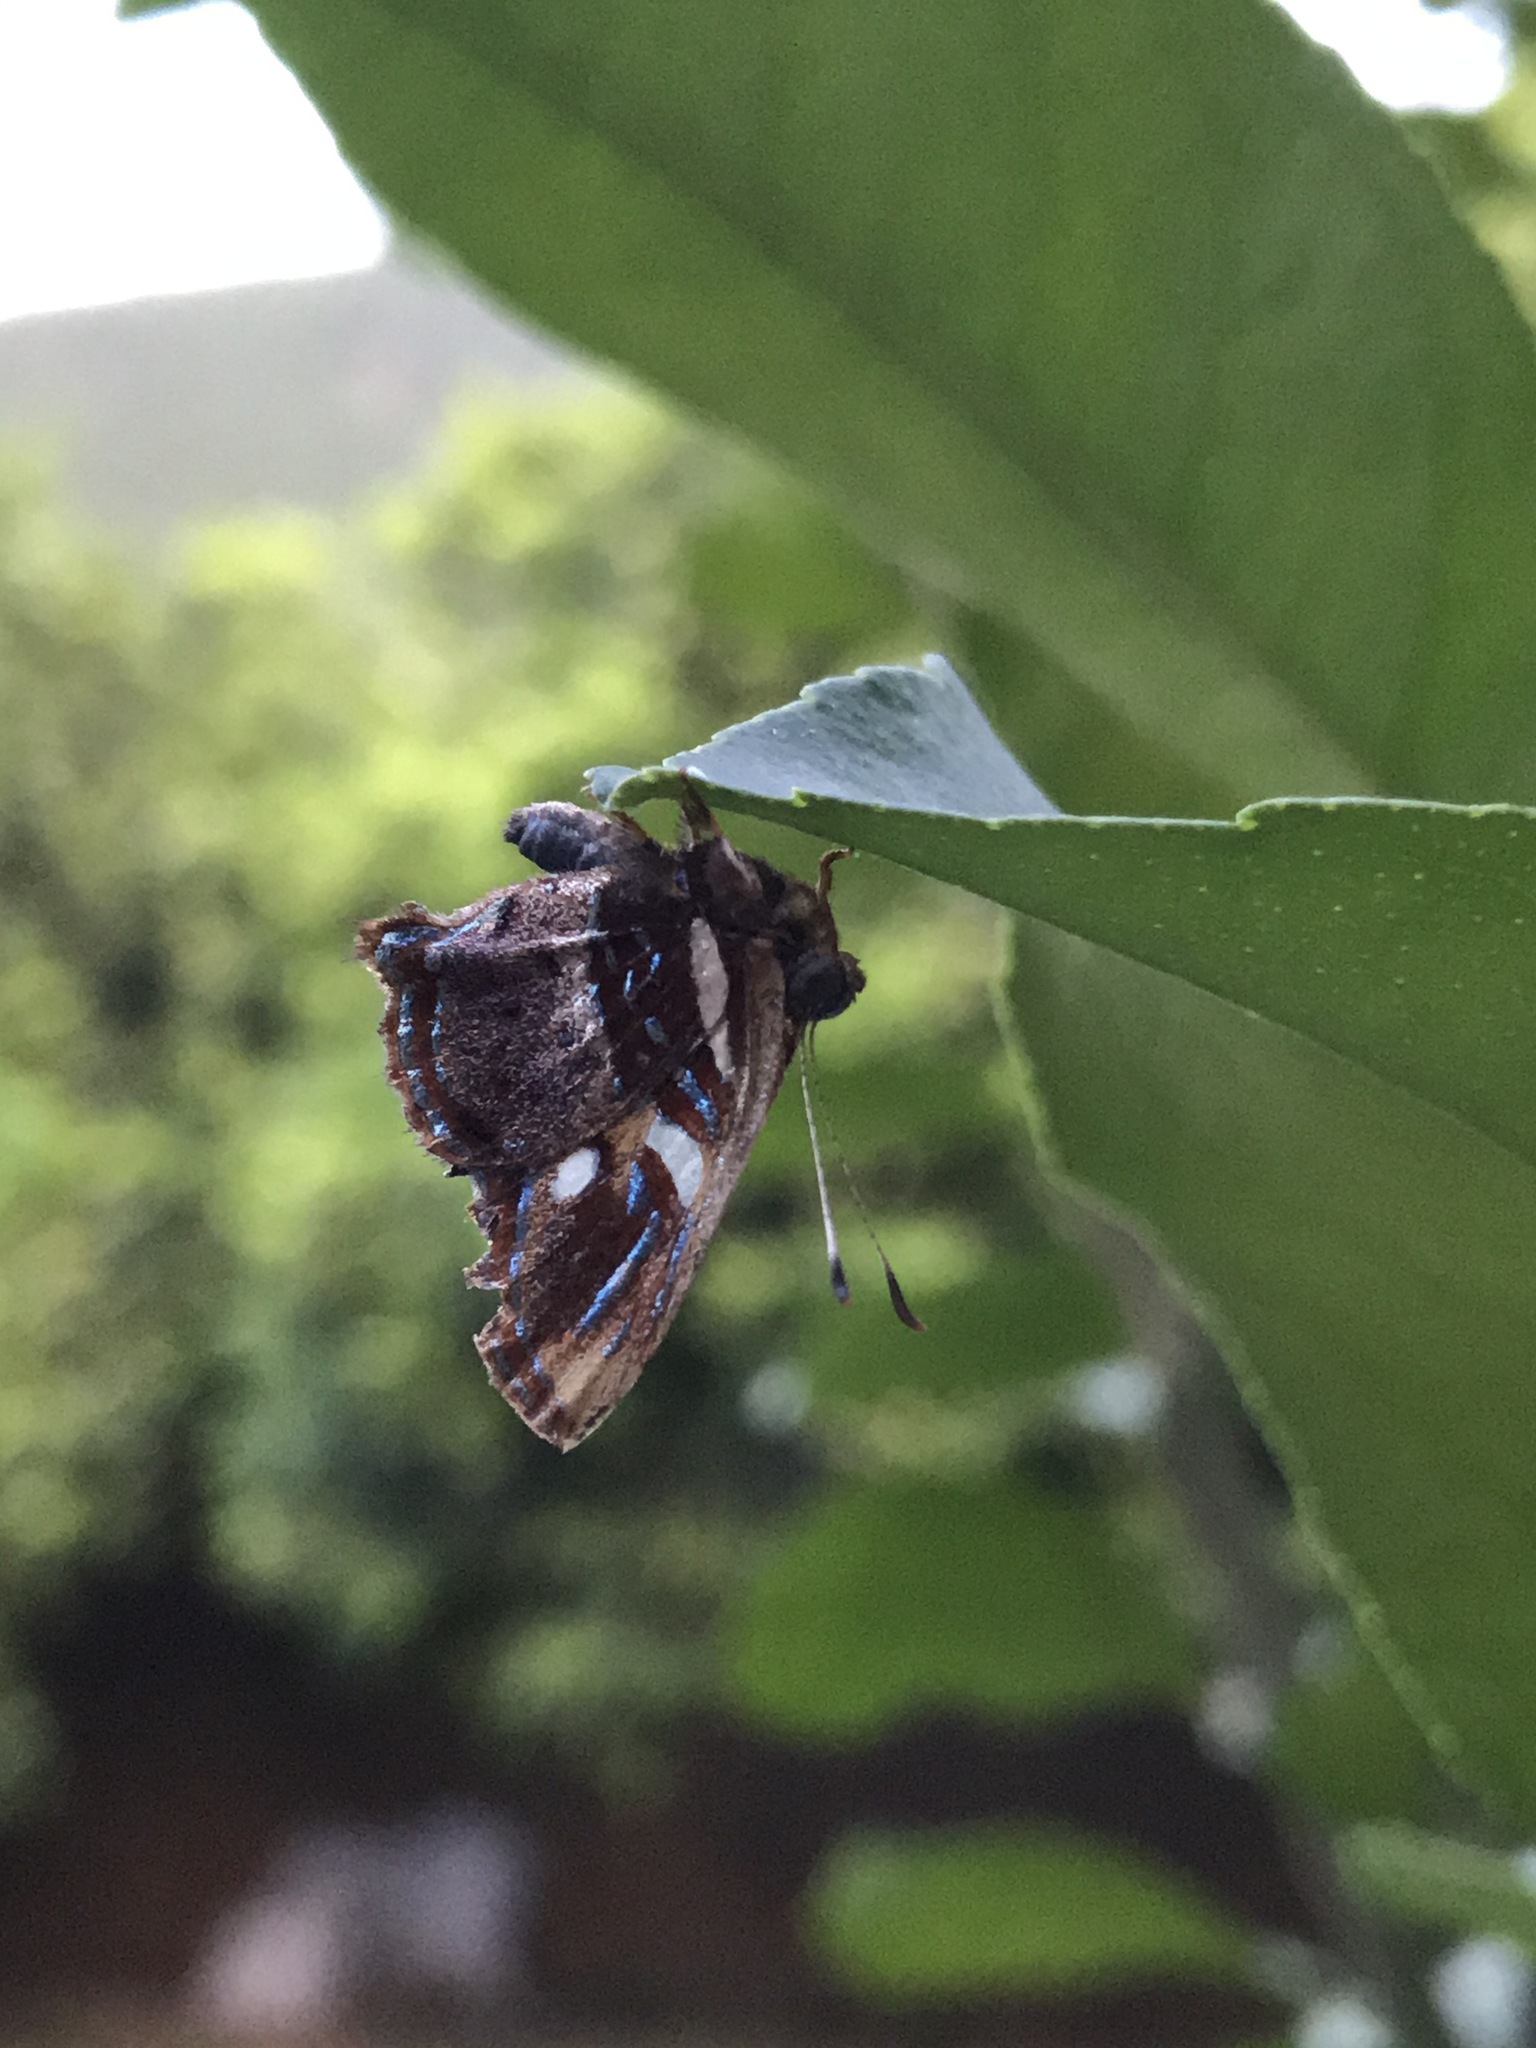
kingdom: Animalia
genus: Anteros
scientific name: Anteros carausius
